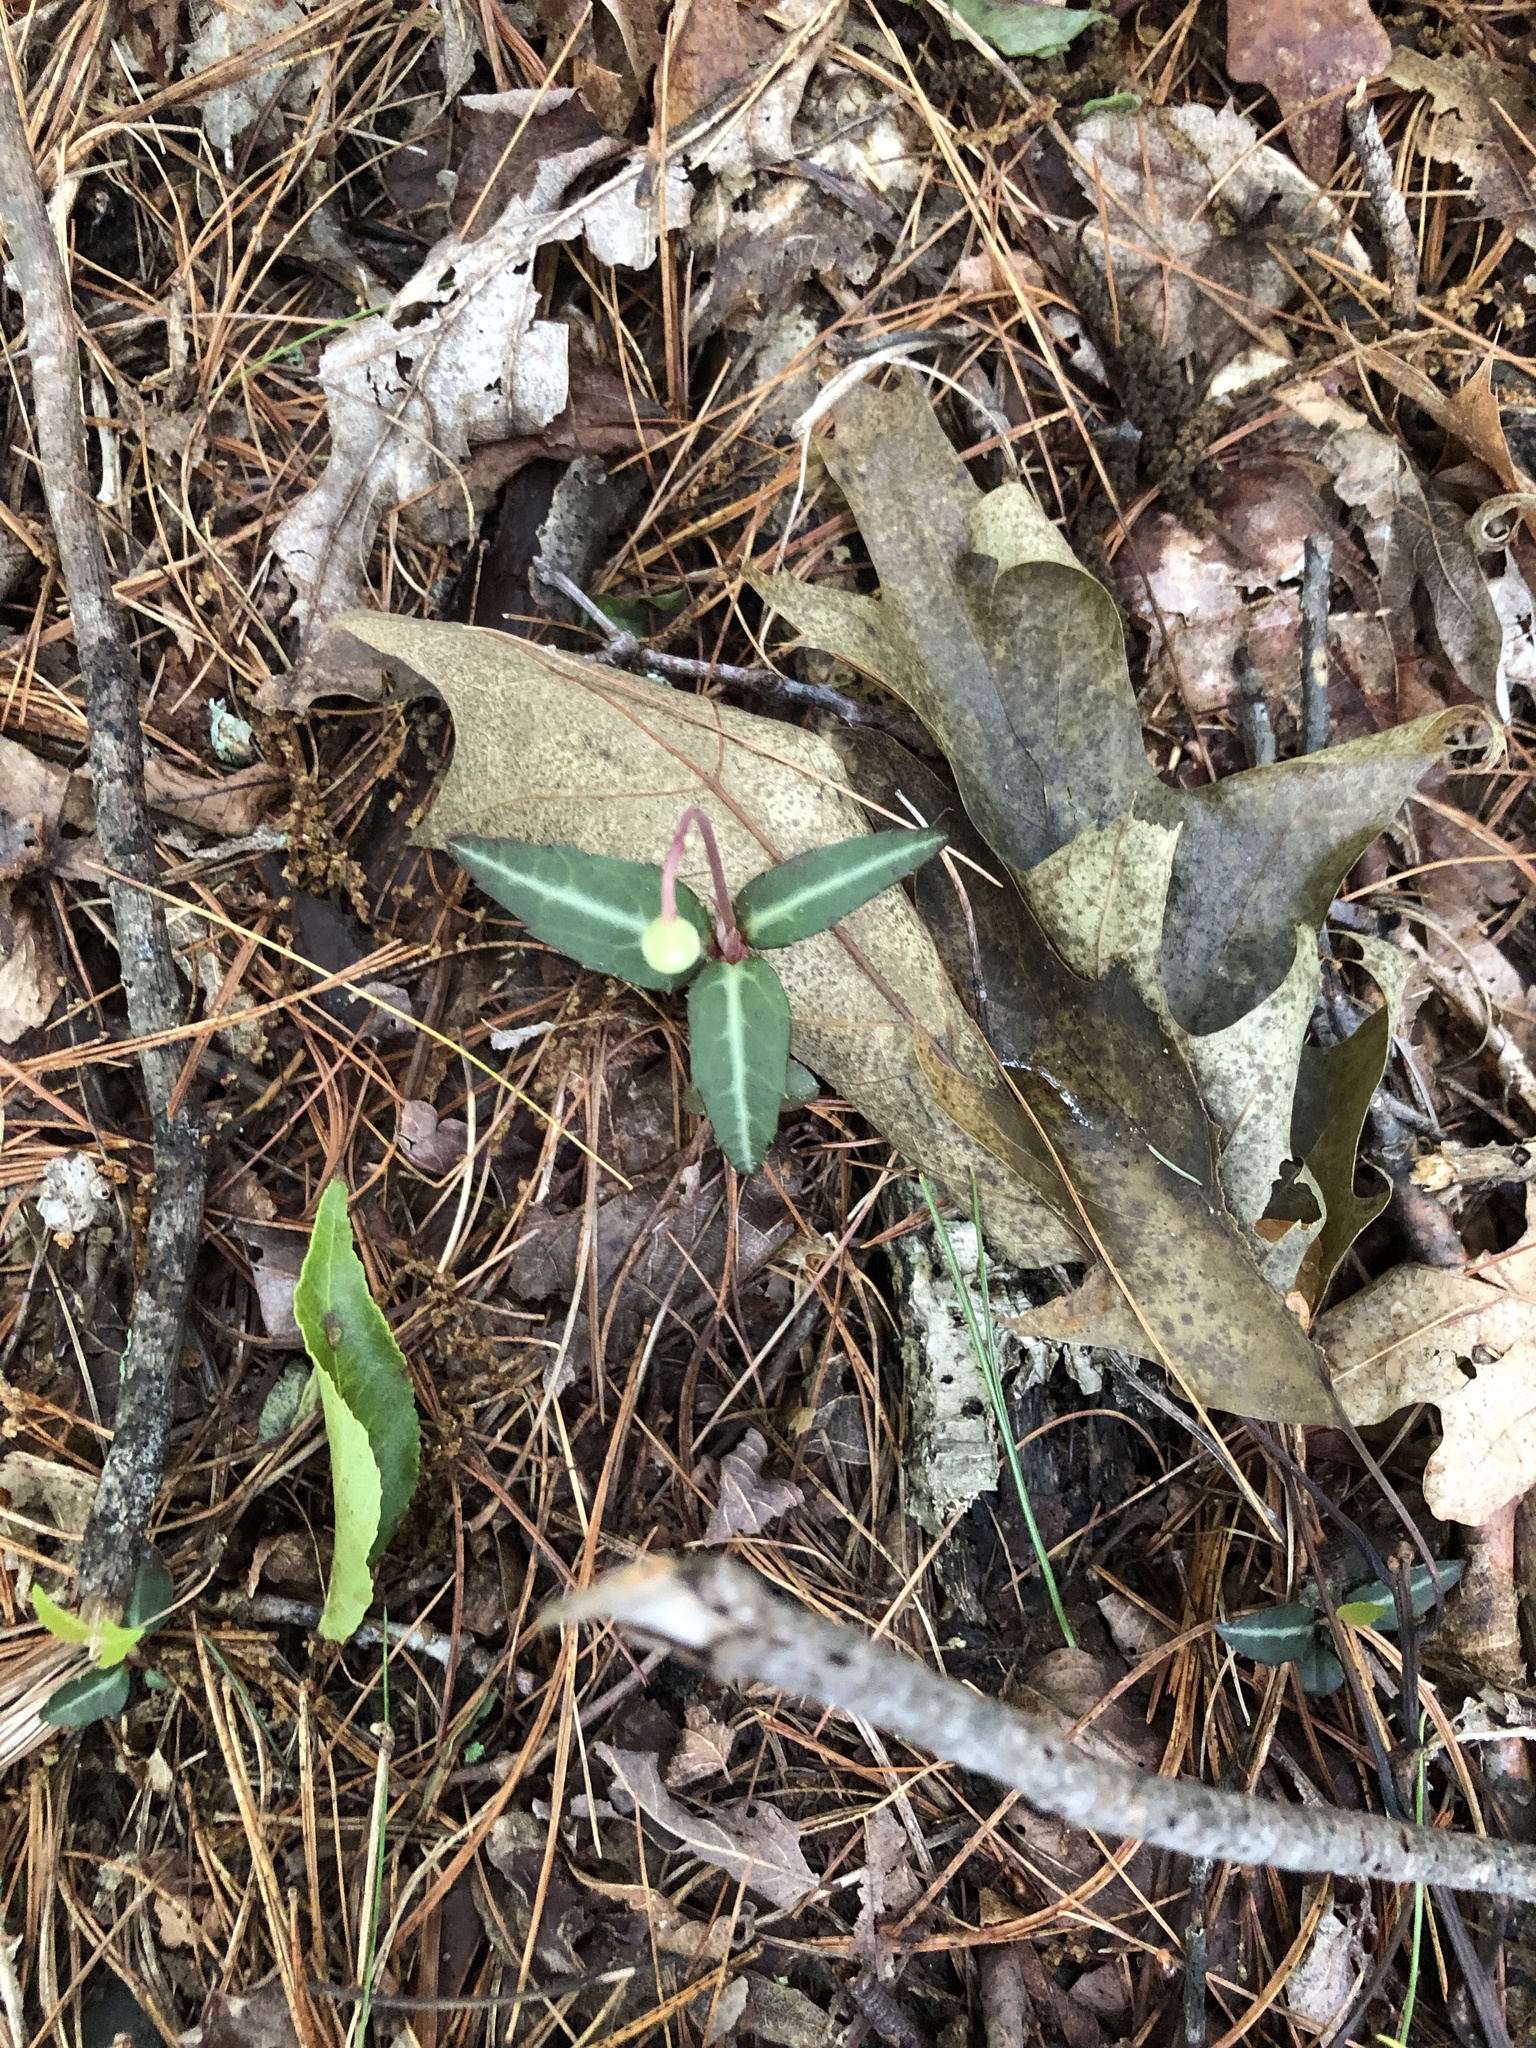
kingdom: Plantae
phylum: Tracheophyta
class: Magnoliopsida
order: Ericales
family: Ericaceae
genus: Chimaphila
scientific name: Chimaphila maculata
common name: Spotted pipsissewa
